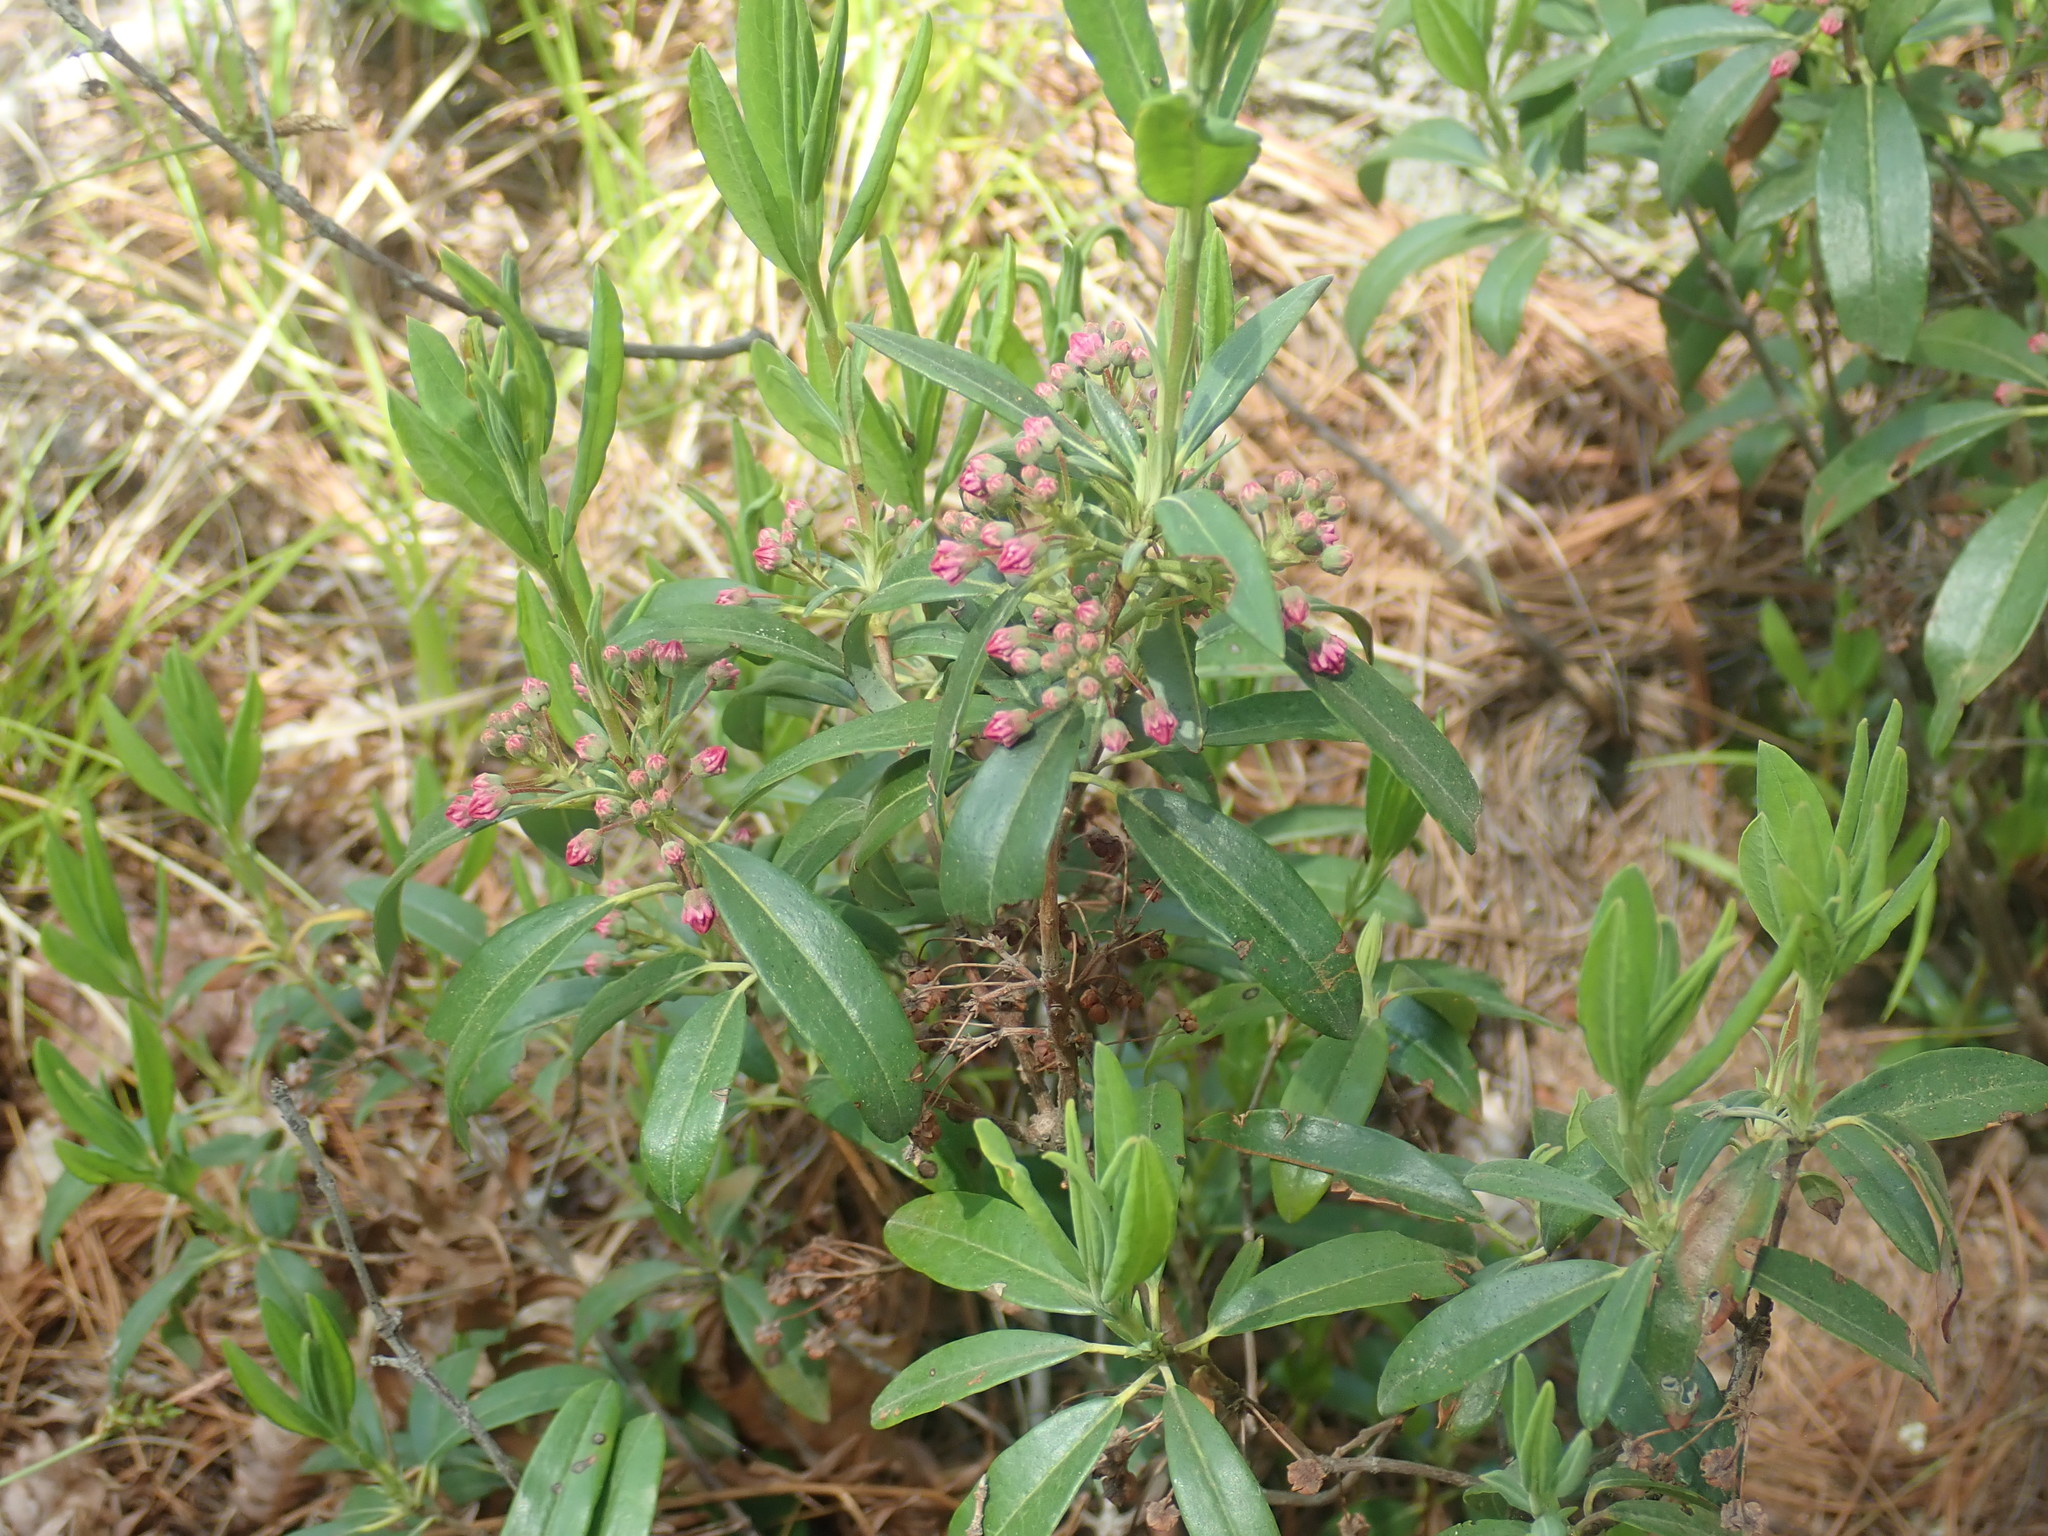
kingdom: Plantae
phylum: Tracheophyta
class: Magnoliopsida
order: Ericales
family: Ericaceae
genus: Kalmia
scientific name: Kalmia angustifolia
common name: Sheep-laurel
